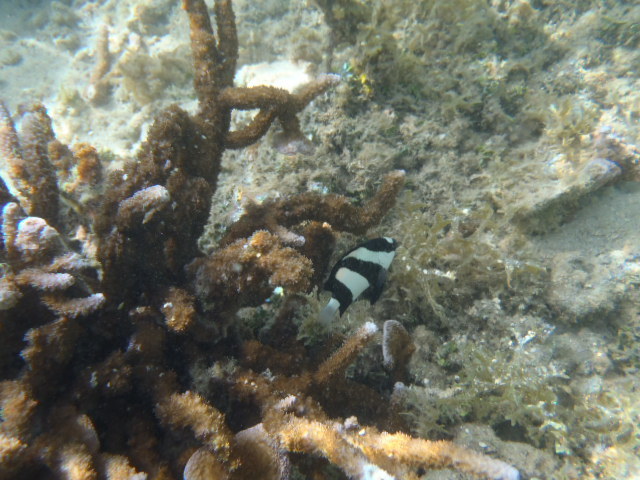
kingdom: Animalia
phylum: Chordata
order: Perciformes
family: Pomacentridae
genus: Dascyllus
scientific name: Dascyllus aruanus
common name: Humbug dascyllus
